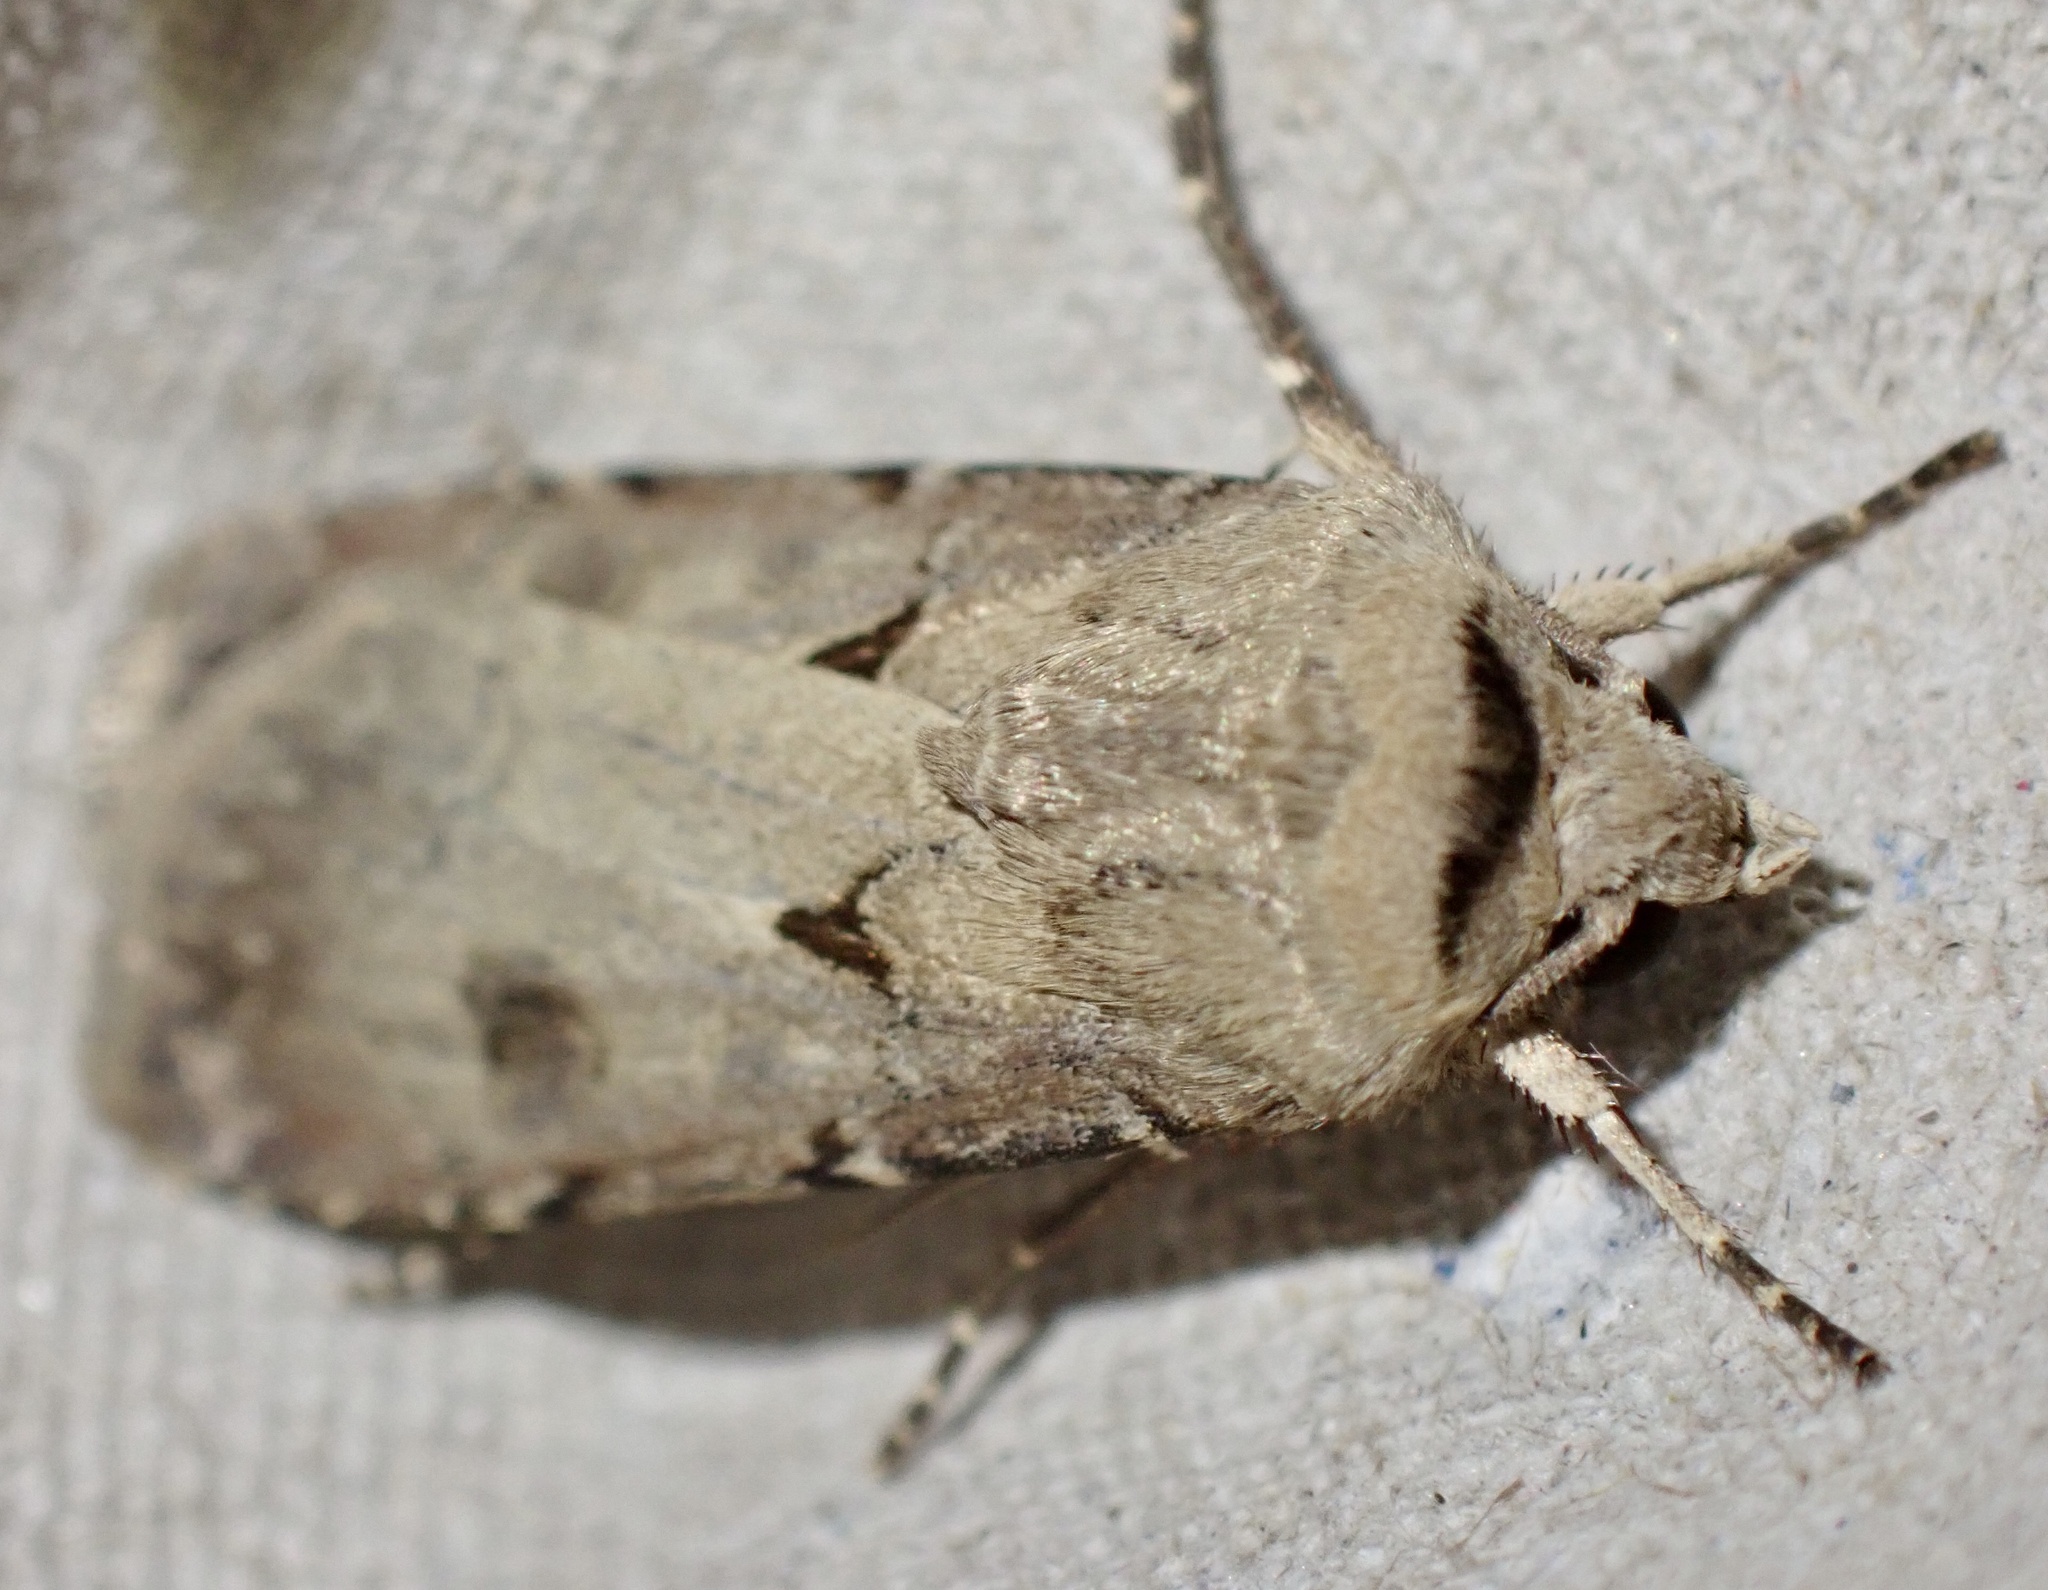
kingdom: Animalia
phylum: Arthropoda
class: Insecta
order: Lepidoptera
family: Noctuidae
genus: Agrotis
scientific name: Agrotis exclamationis
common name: Heart and dart
